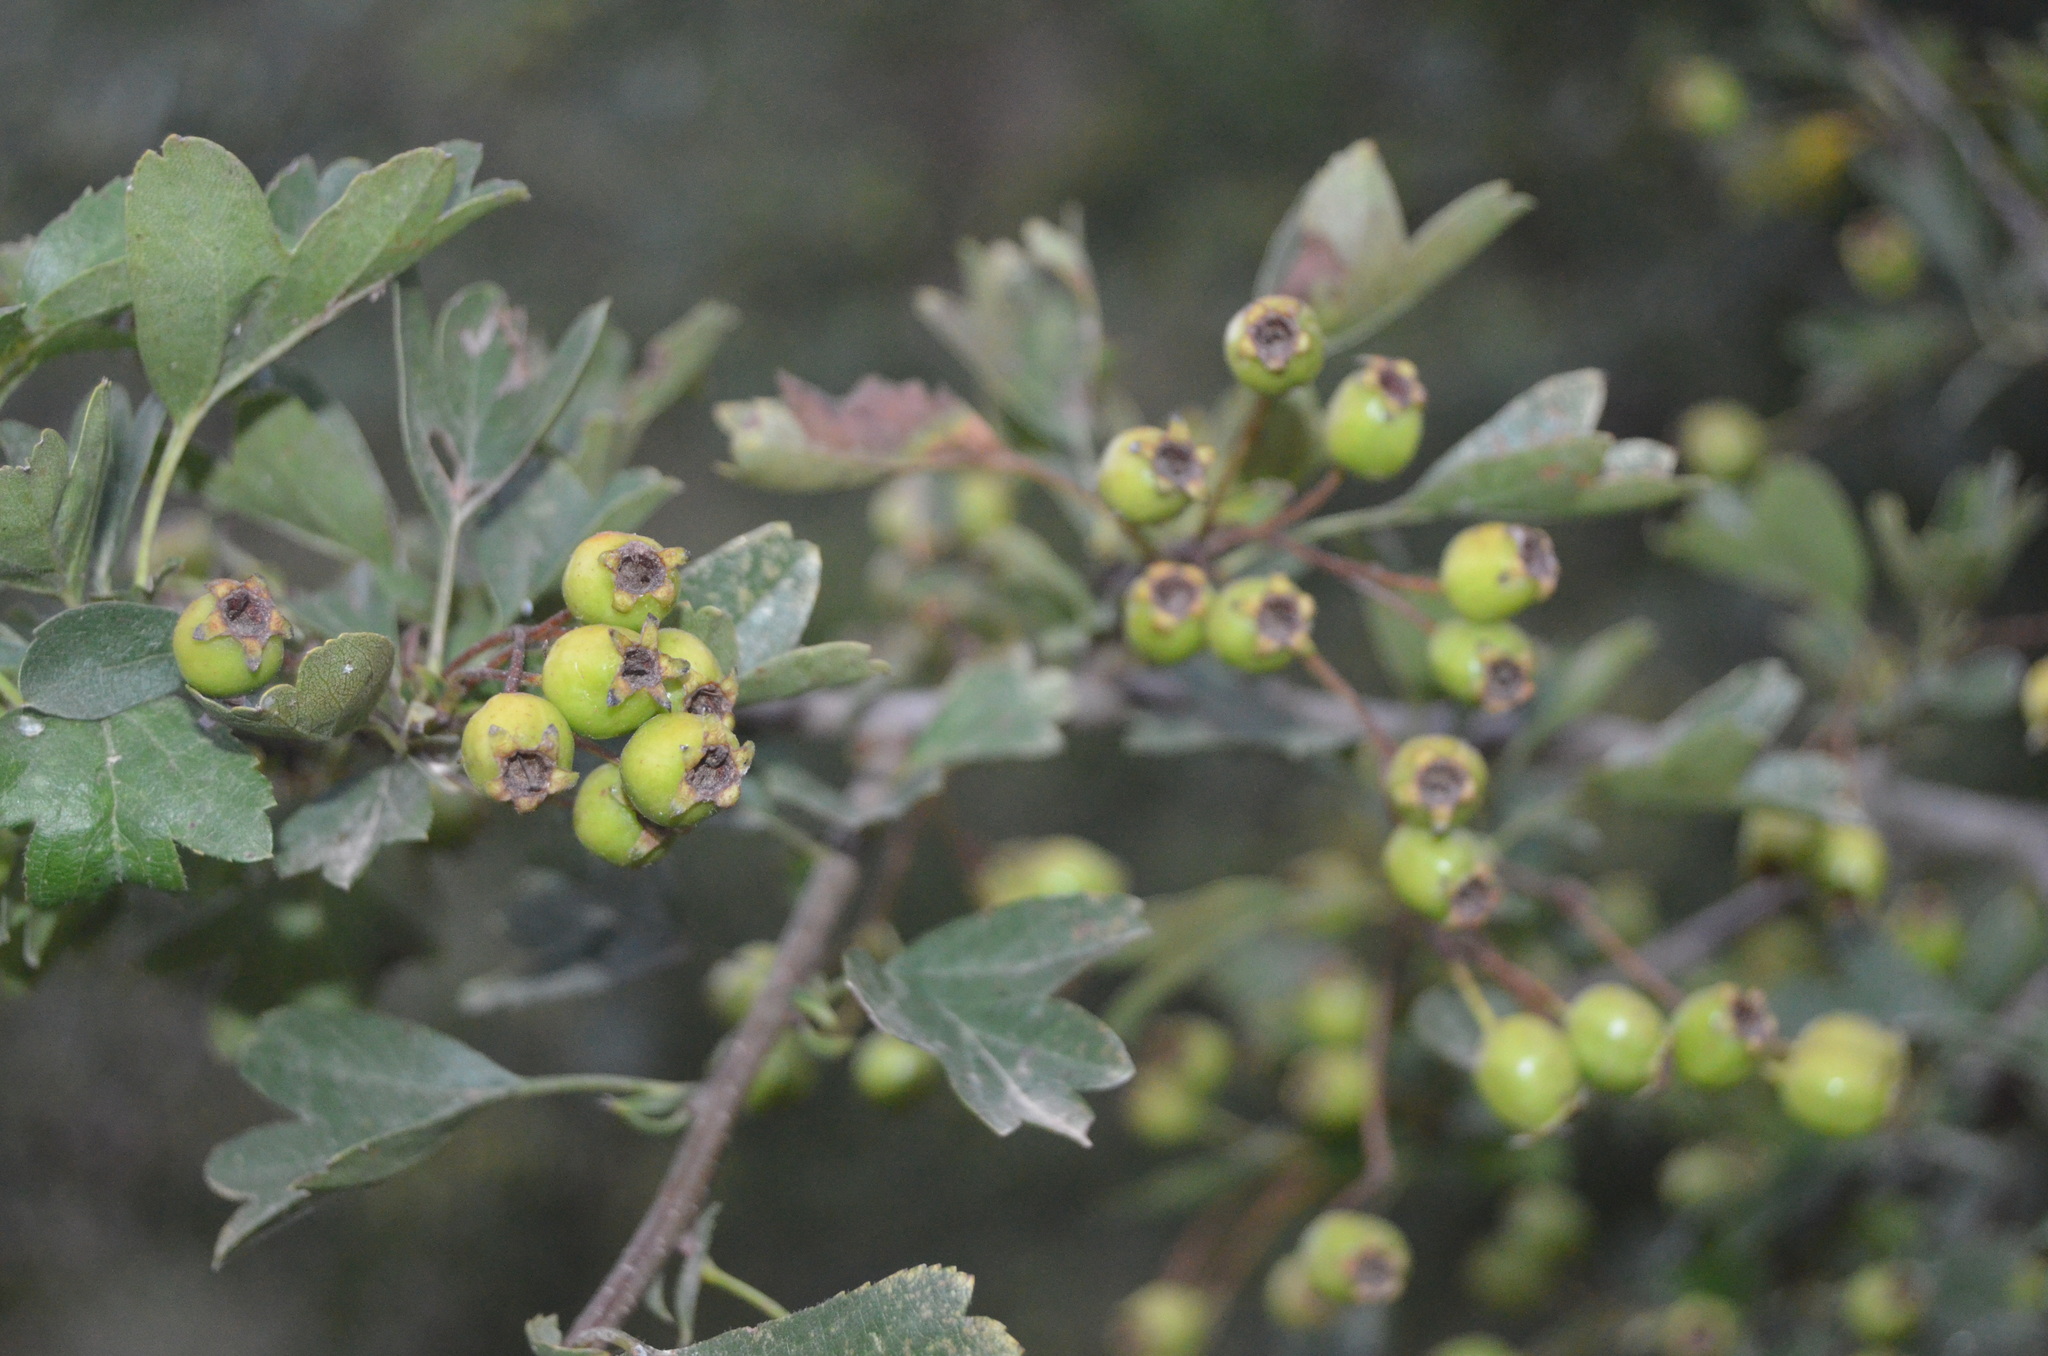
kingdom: Plantae
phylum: Tracheophyta
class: Magnoliopsida
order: Rosales
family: Rosaceae
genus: Crataegus
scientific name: Crataegus monogyna
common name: Hawthorn
